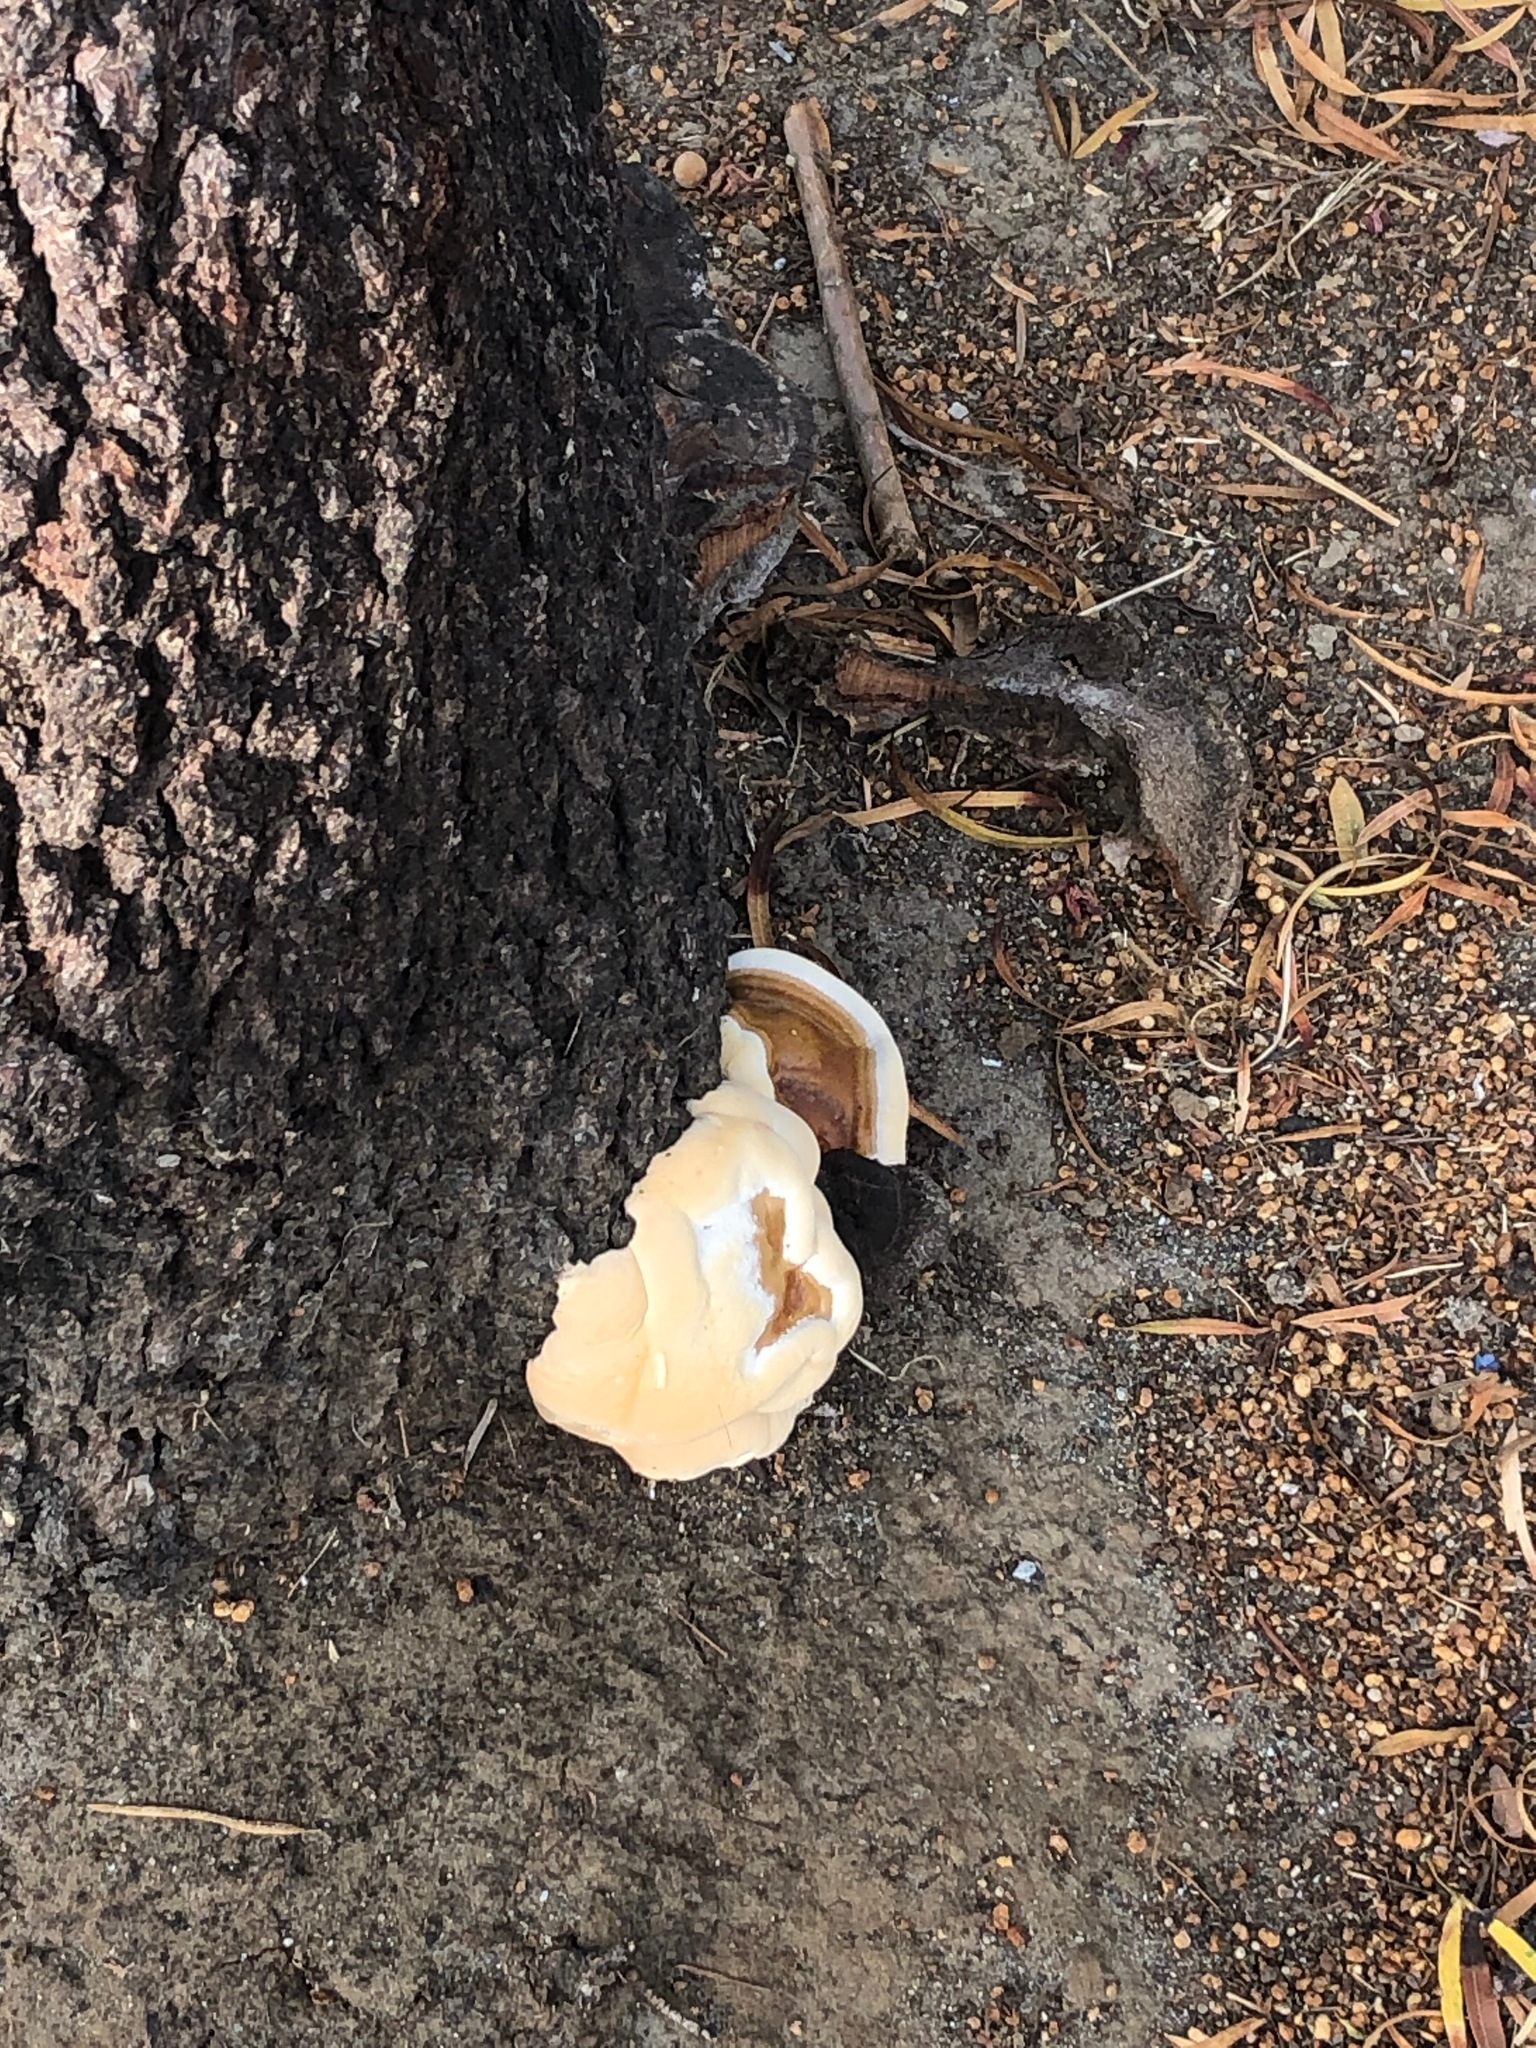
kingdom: Fungi
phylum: Basidiomycota
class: Agaricomycetes
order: Polyporales
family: Polyporaceae
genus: Ganoderma
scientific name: Ganoderma polychromum
